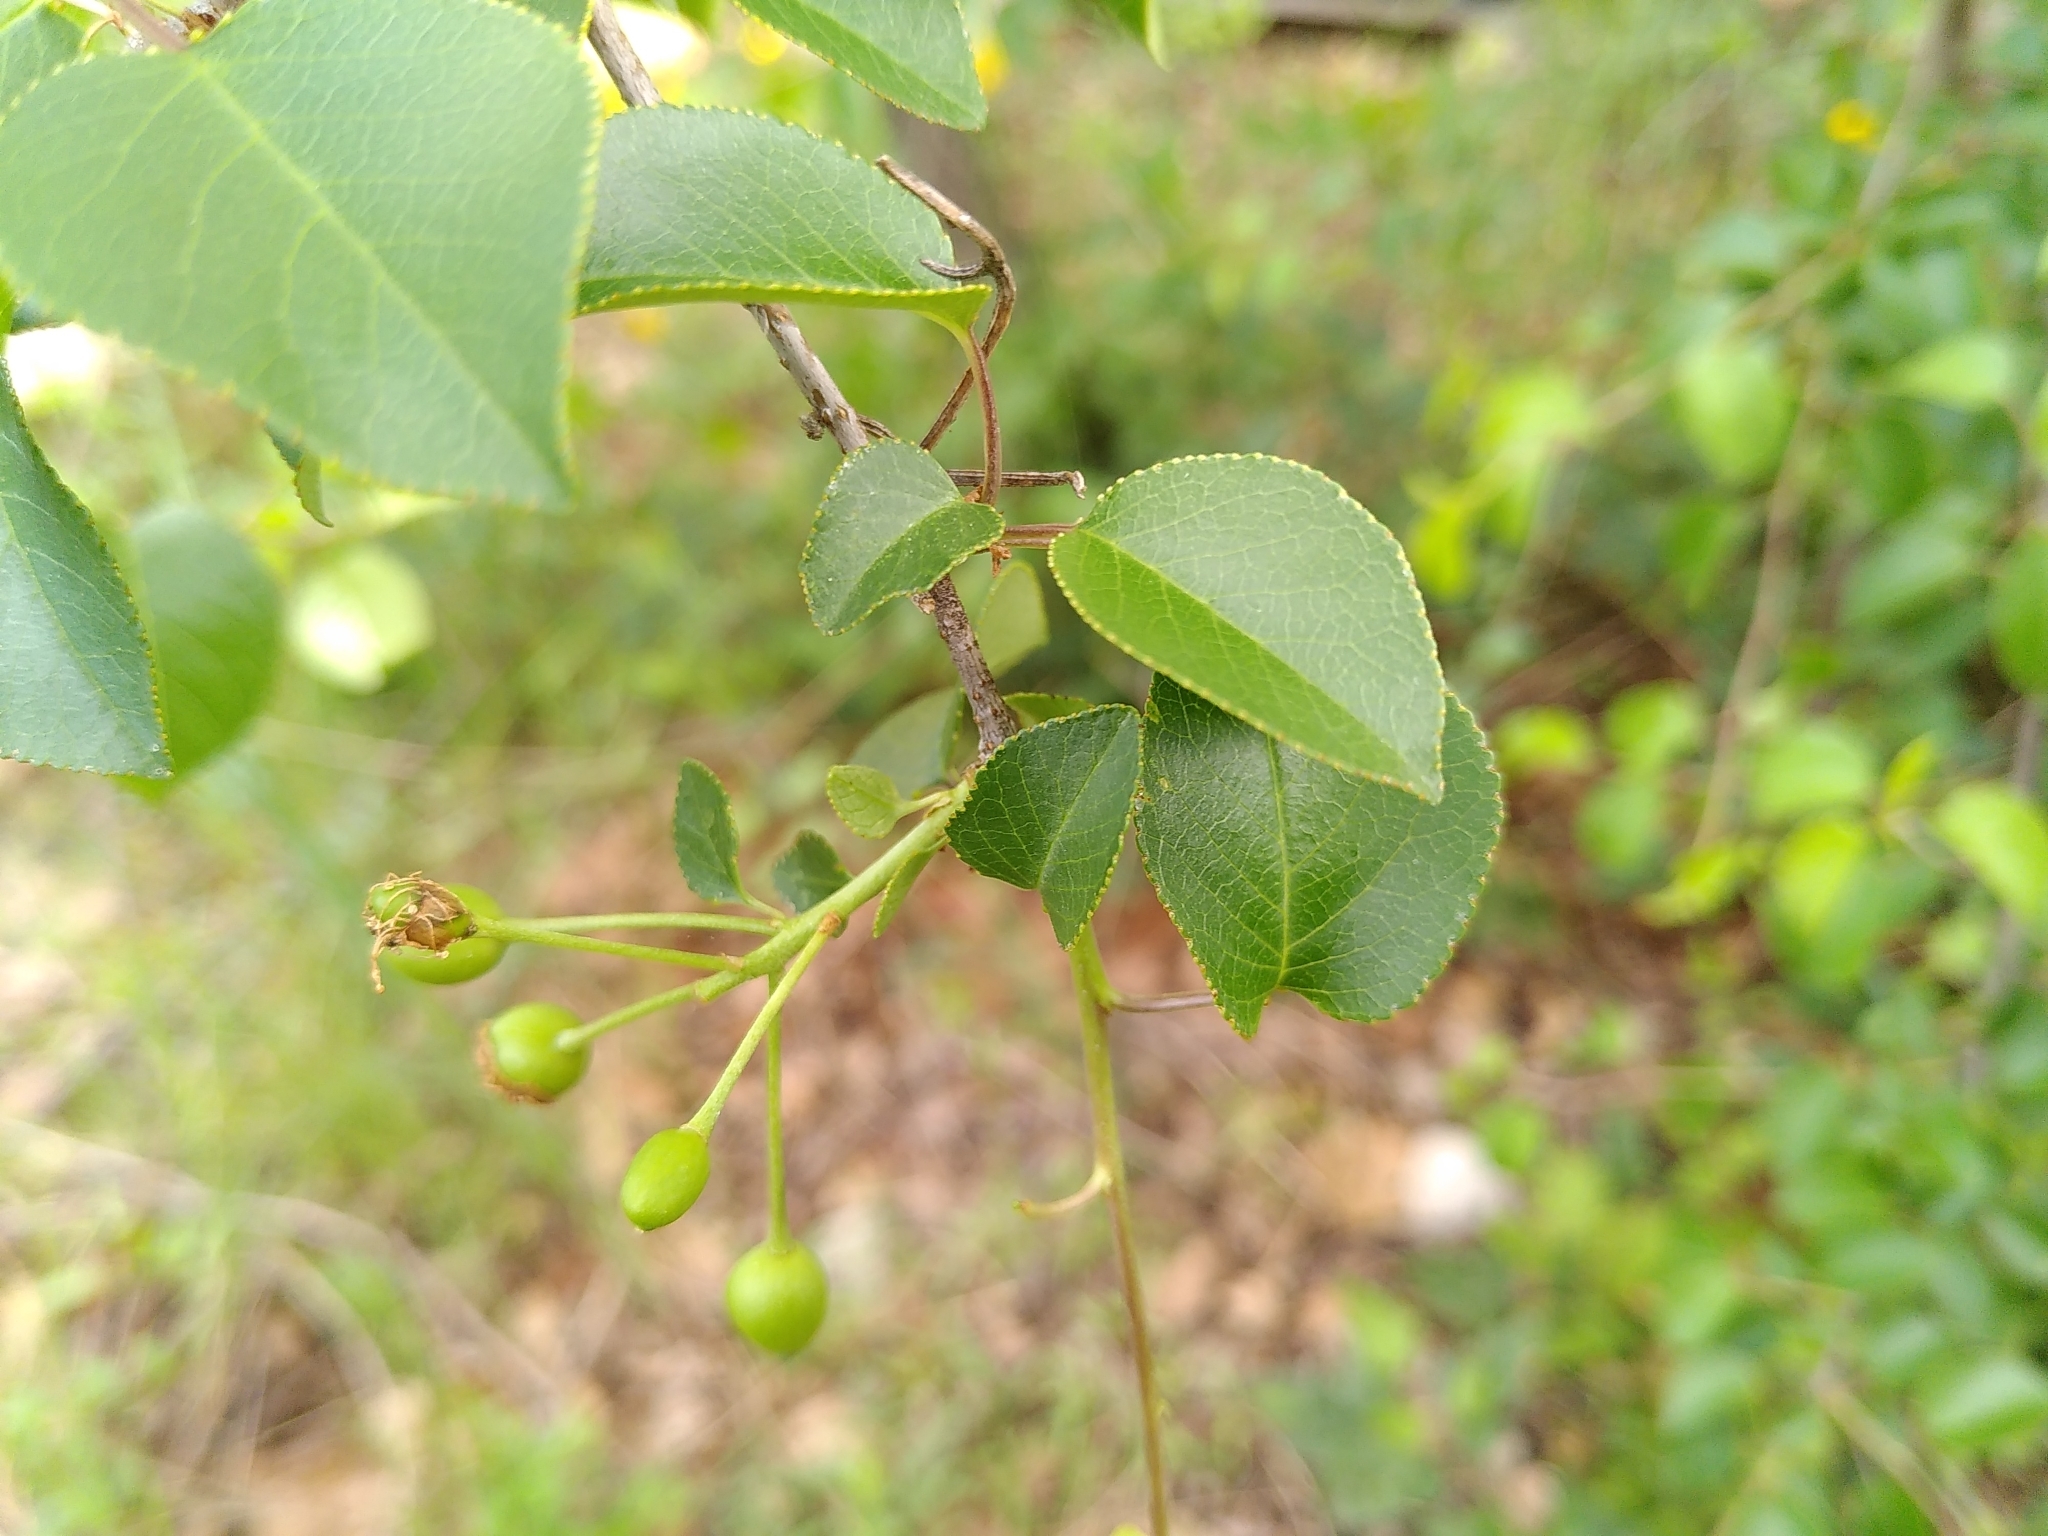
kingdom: Plantae
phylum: Tracheophyta
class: Magnoliopsida
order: Rosales
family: Rosaceae
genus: Prunus
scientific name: Prunus mahaleb
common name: Mahaleb cherry
